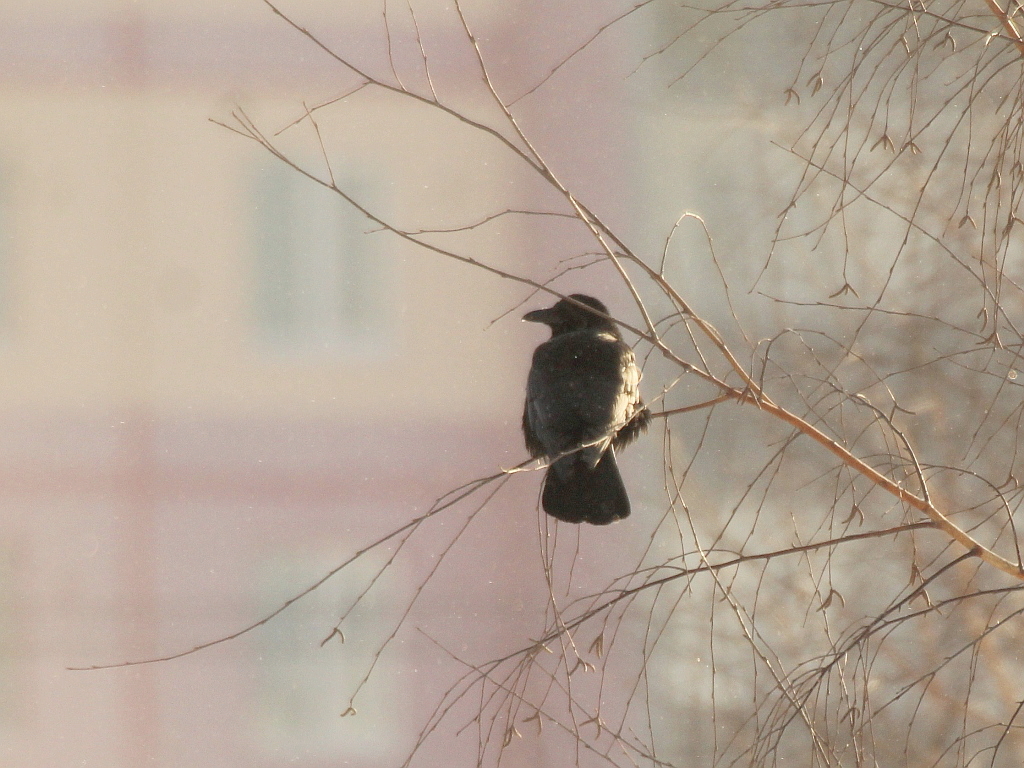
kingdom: Animalia
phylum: Chordata
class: Aves
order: Passeriformes
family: Corvidae
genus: Corvus
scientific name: Corvus
